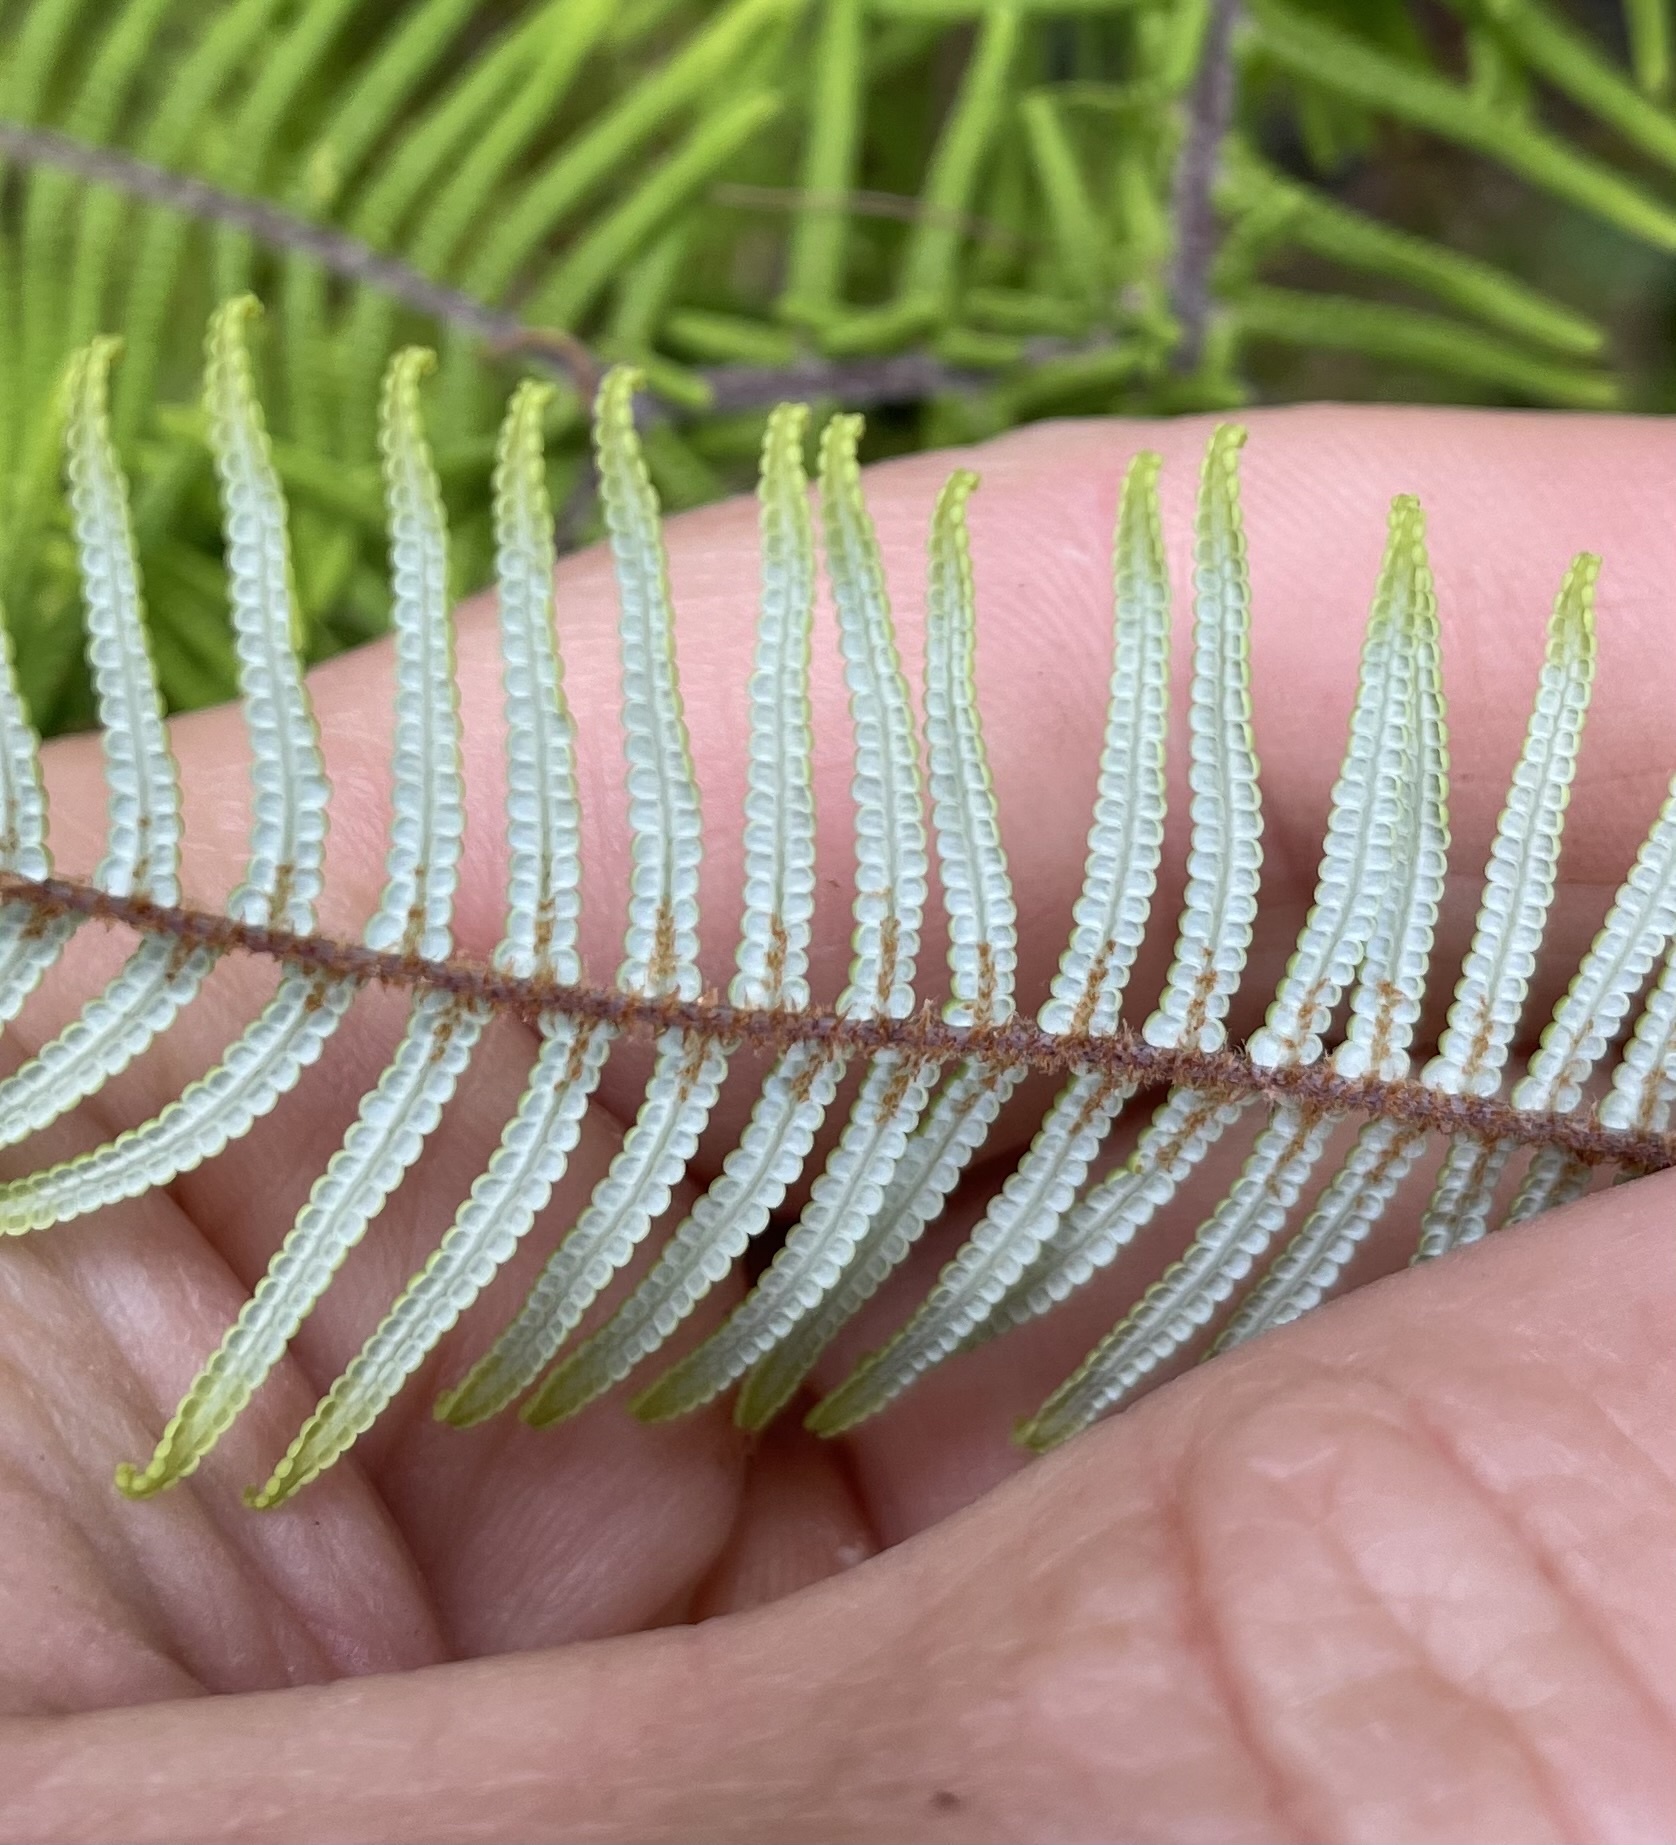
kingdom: Plantae
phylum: Tracheophyta
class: Polypodiopsida
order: Gleicheniales
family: Gleicheniaceae
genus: Gleichenia
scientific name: Gleichenia dicarpa
